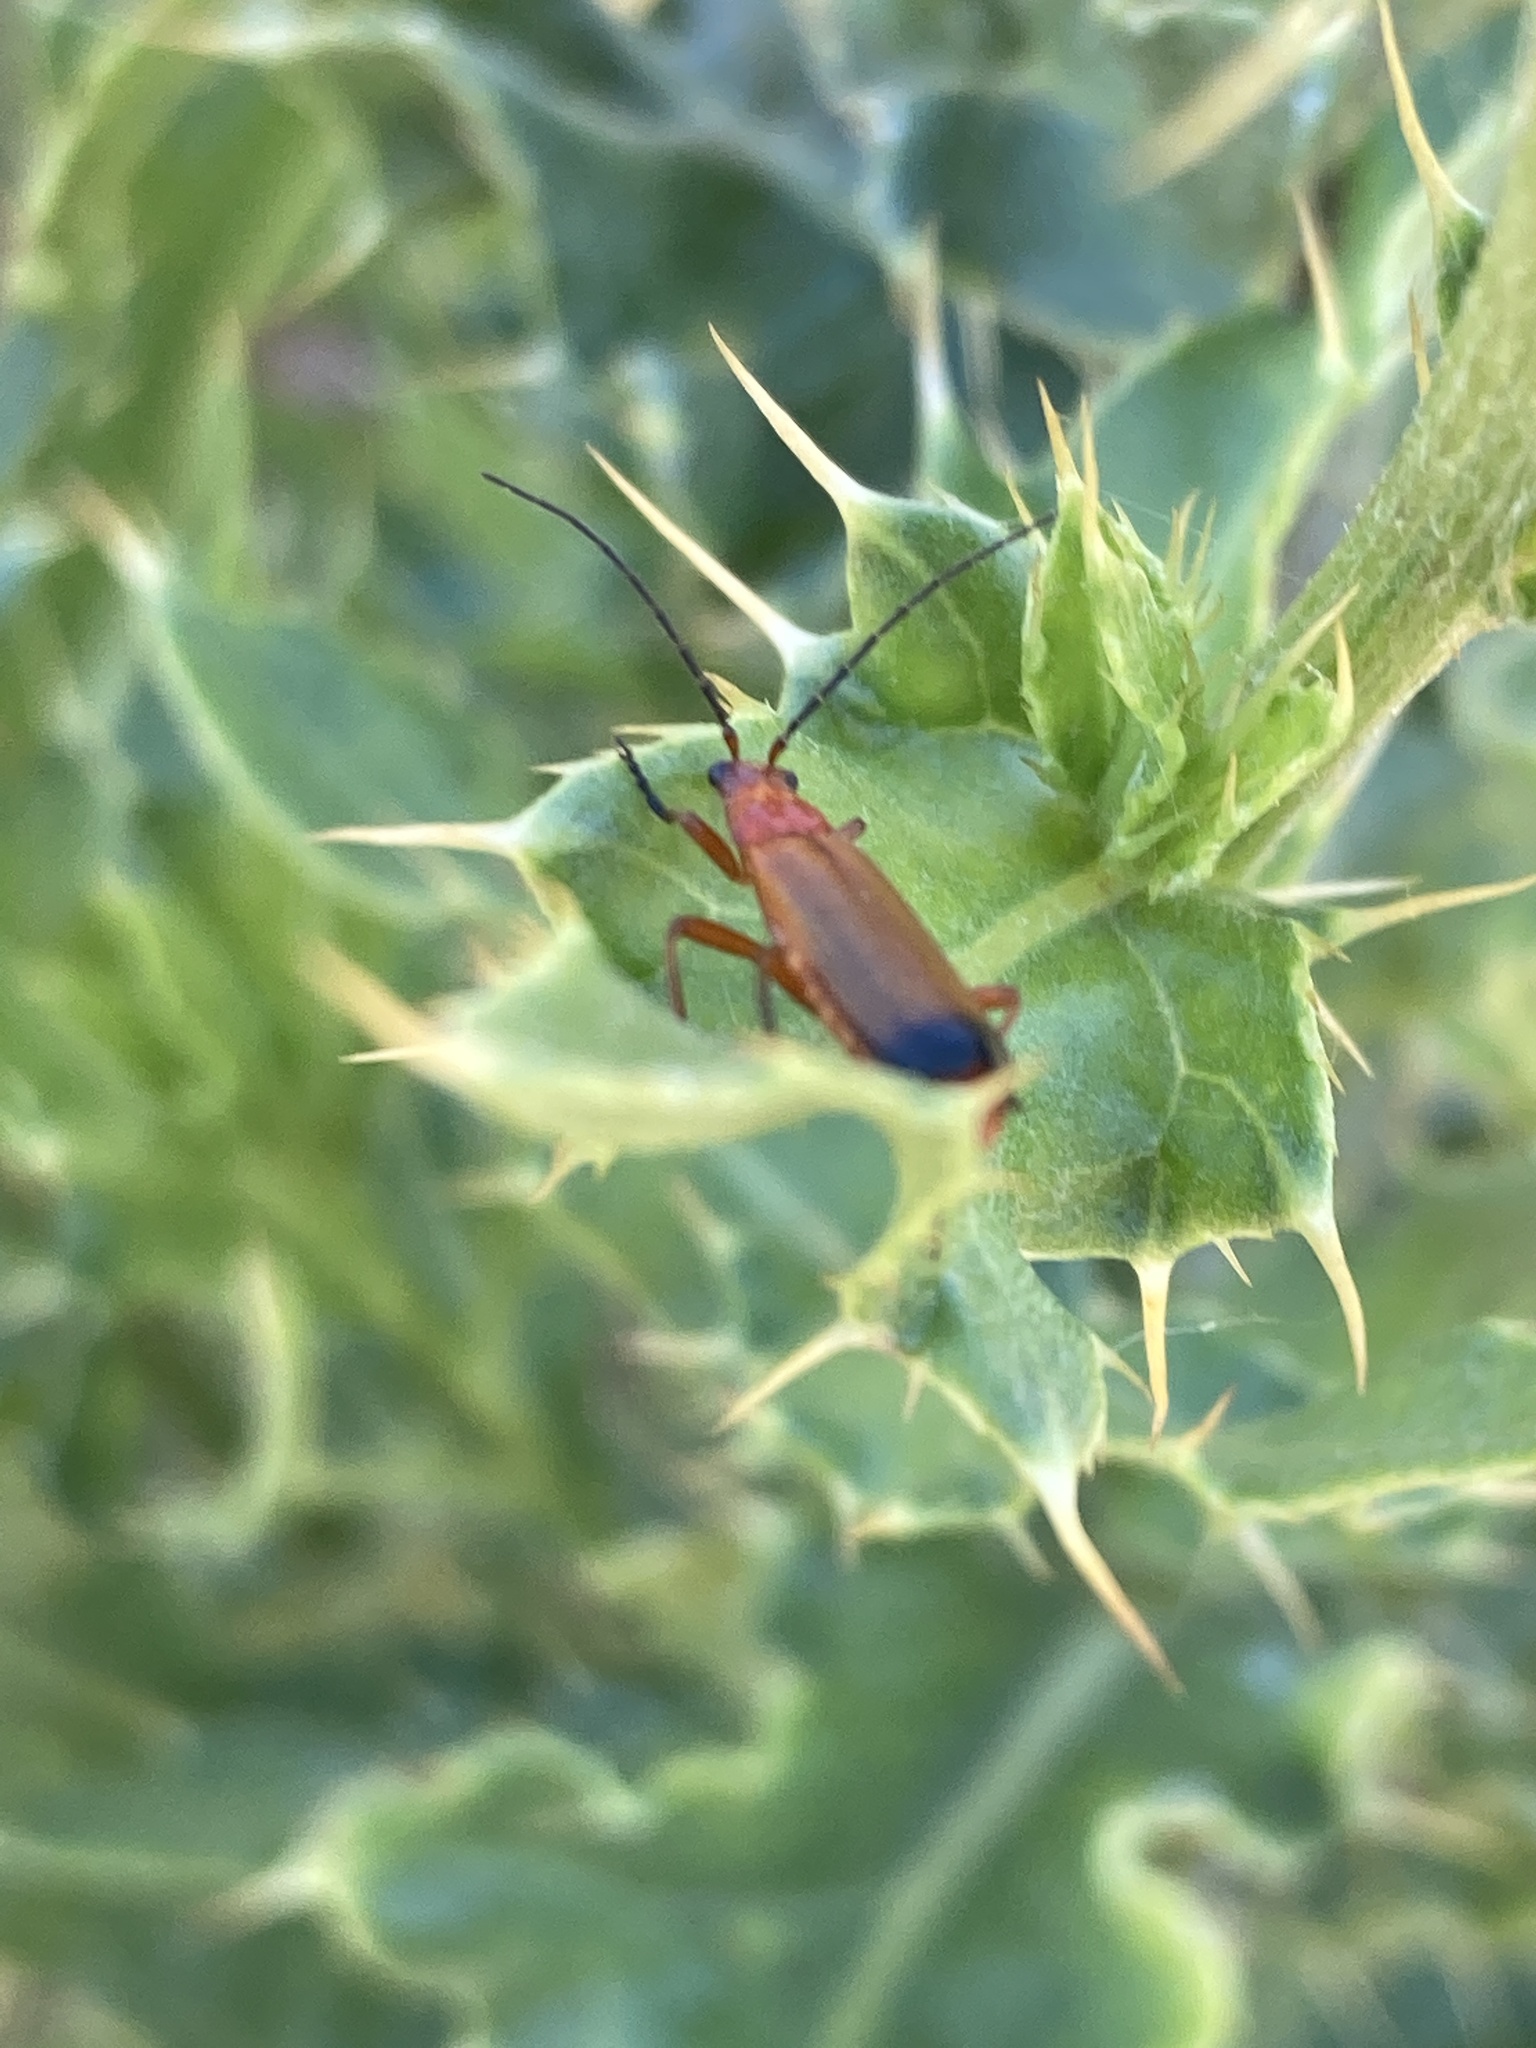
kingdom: Animalia
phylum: Arthropoda
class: Insecta
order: Coleoptera
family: Cantharidae
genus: Rhagonycha
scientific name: Rhagonycha fulva
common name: Common red soldier beetle
